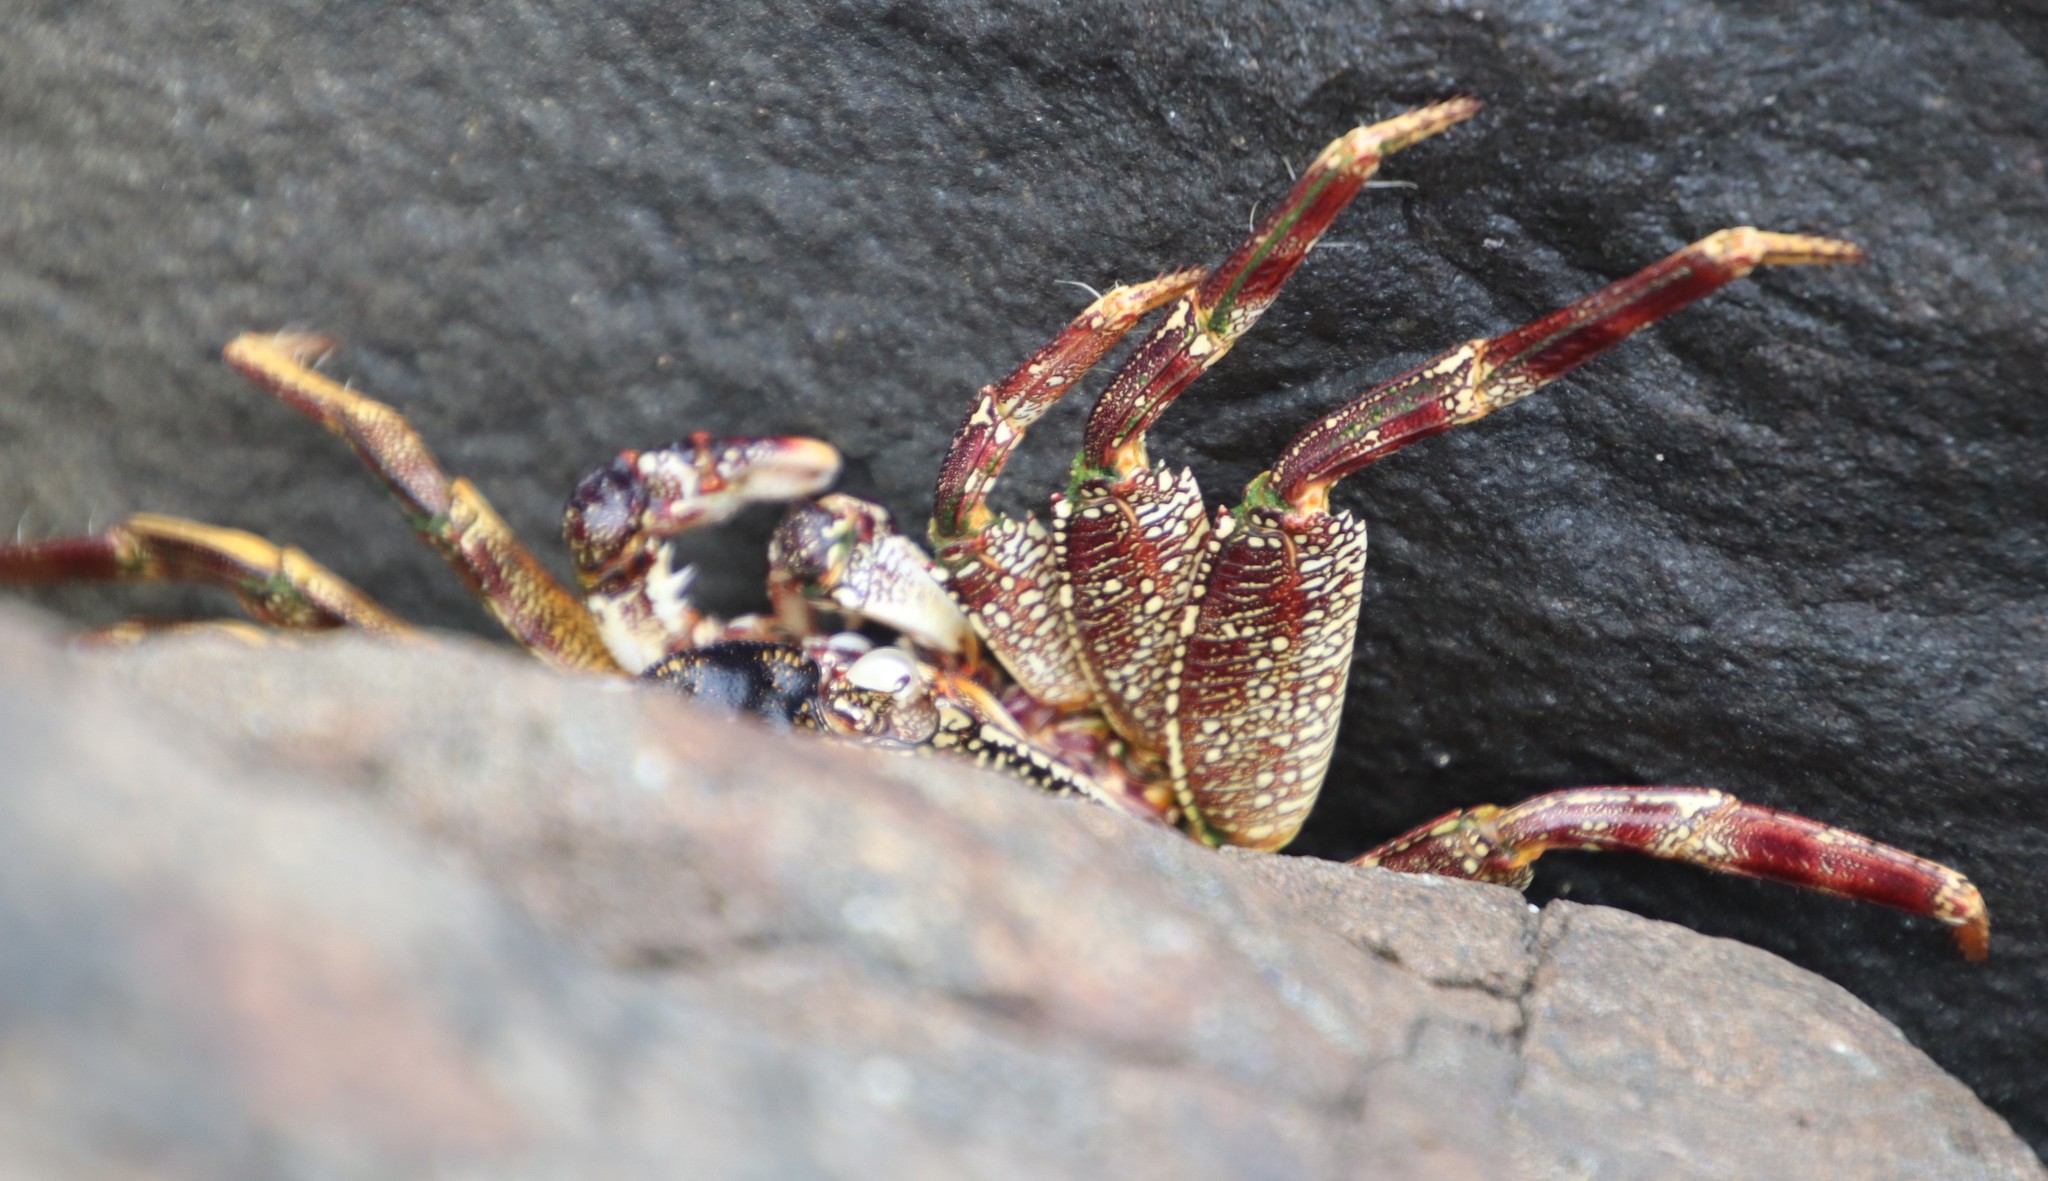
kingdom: Animalia
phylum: Arthropoda
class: Malacostraca
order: Decapoda
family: Grapsidae
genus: Grapsus
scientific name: Grapsus tenuicrustatus
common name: Natal lightfoot crab
